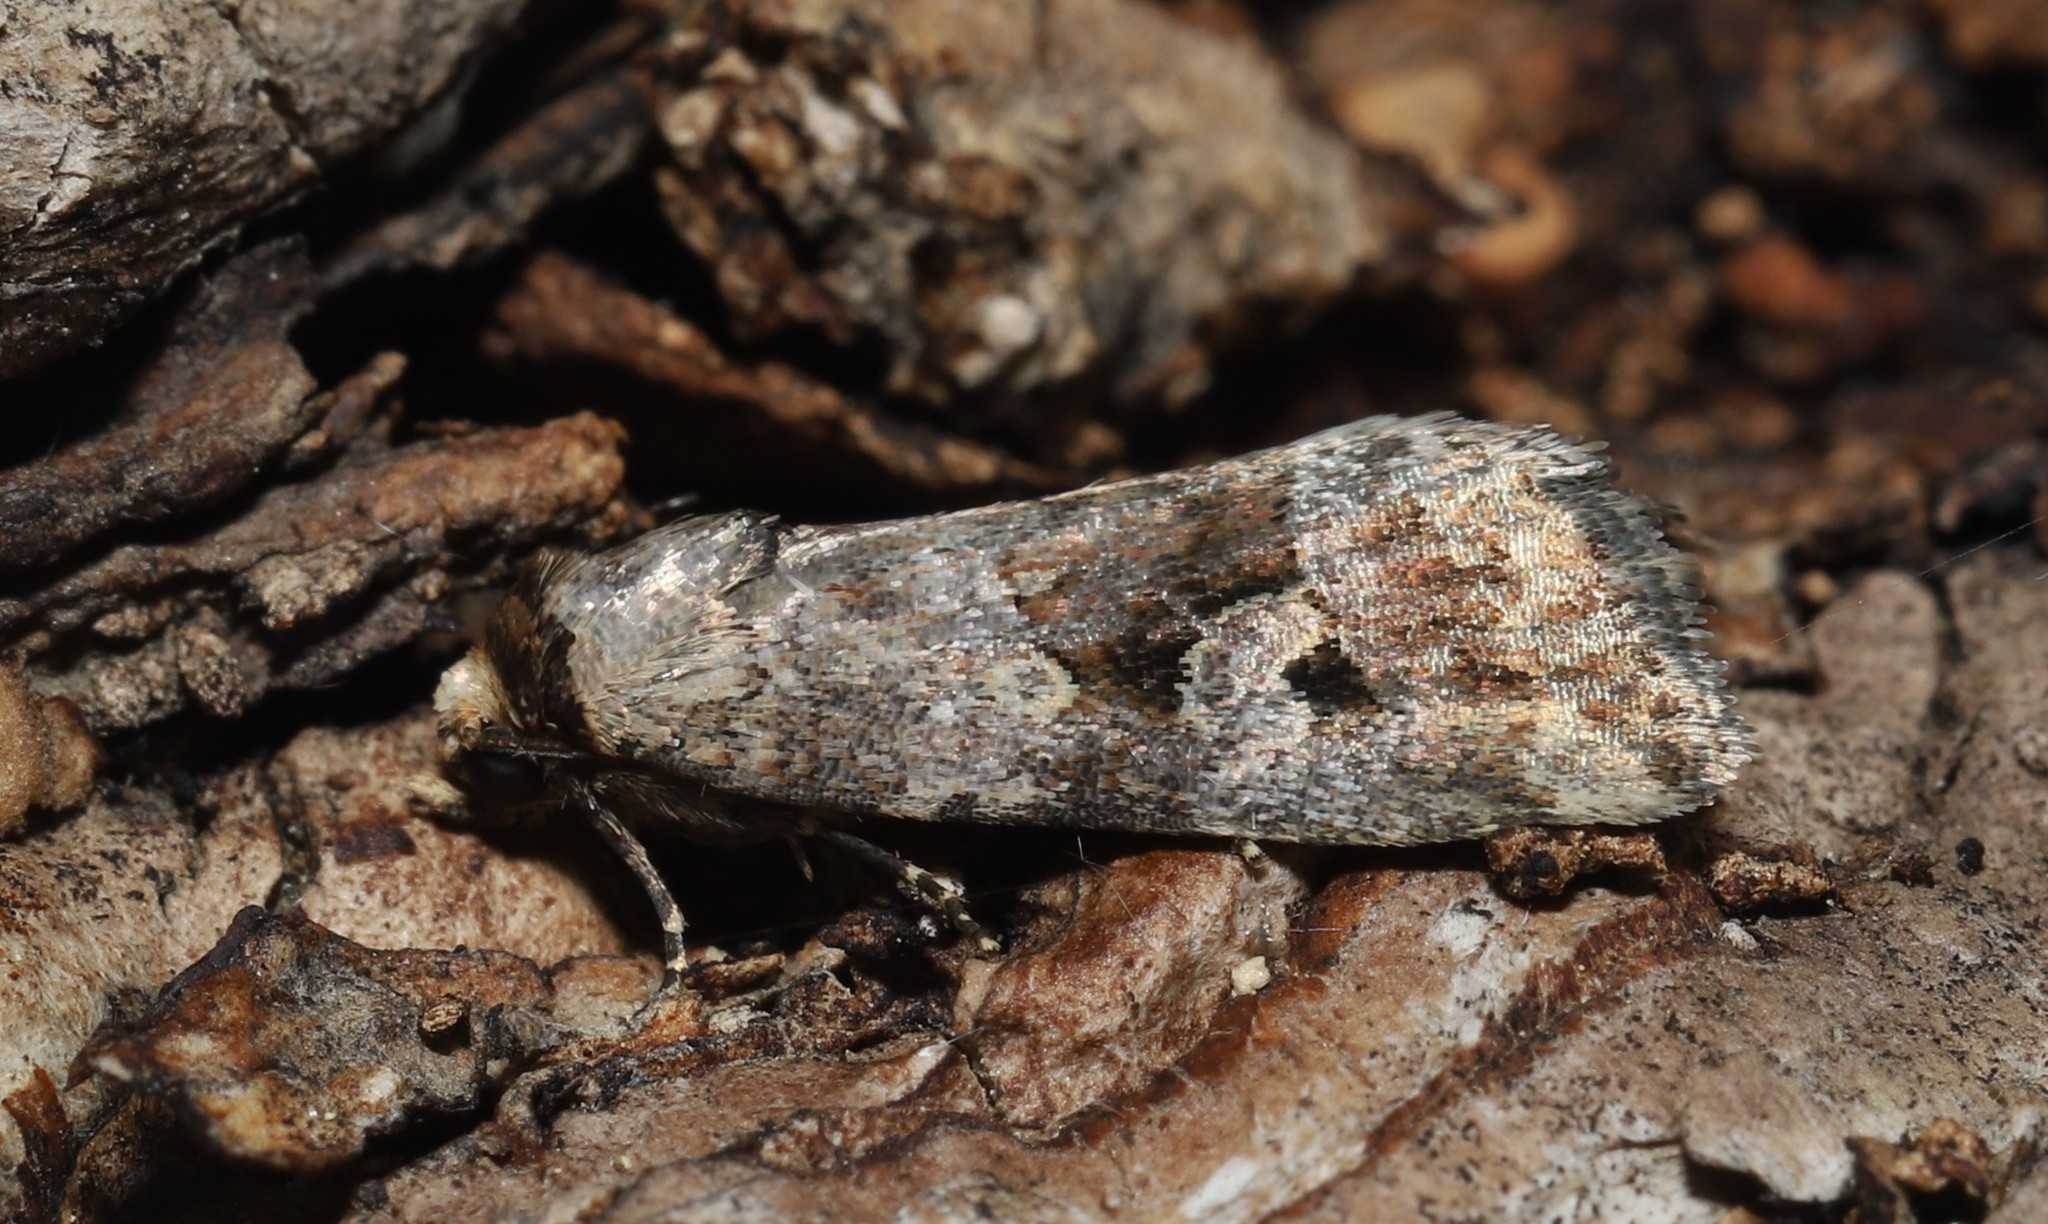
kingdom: Animalia
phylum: Arthropoda
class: Insecta
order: Lepidoptera
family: Noctuidae
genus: Elaphria
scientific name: Elaphria alapallida
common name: Pale-winged midget
